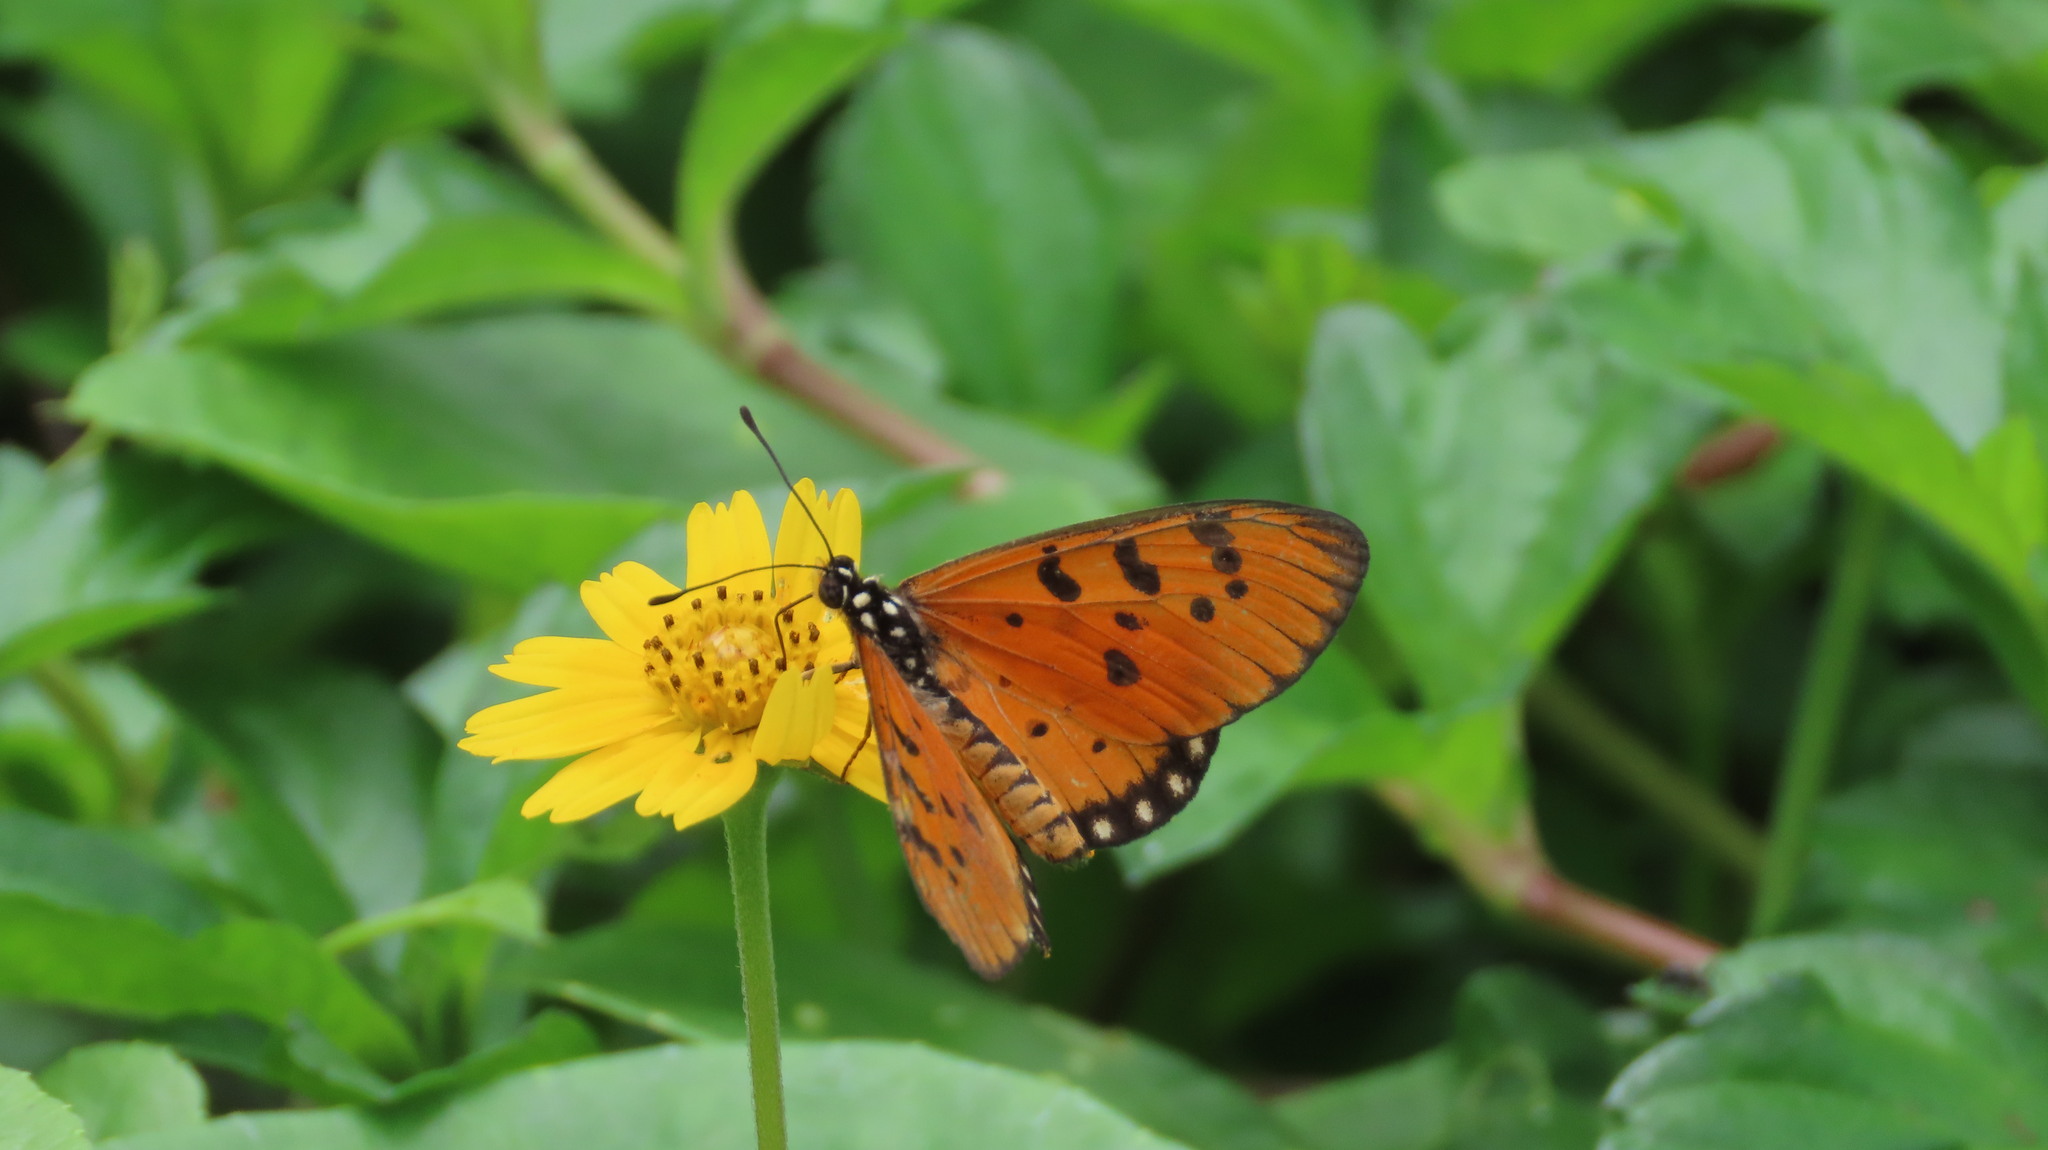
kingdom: Animalia
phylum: Arthropoda
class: Insecta
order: Lepidoptera
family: Nymphalidae
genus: Acraea
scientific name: Acraea terpsicore
